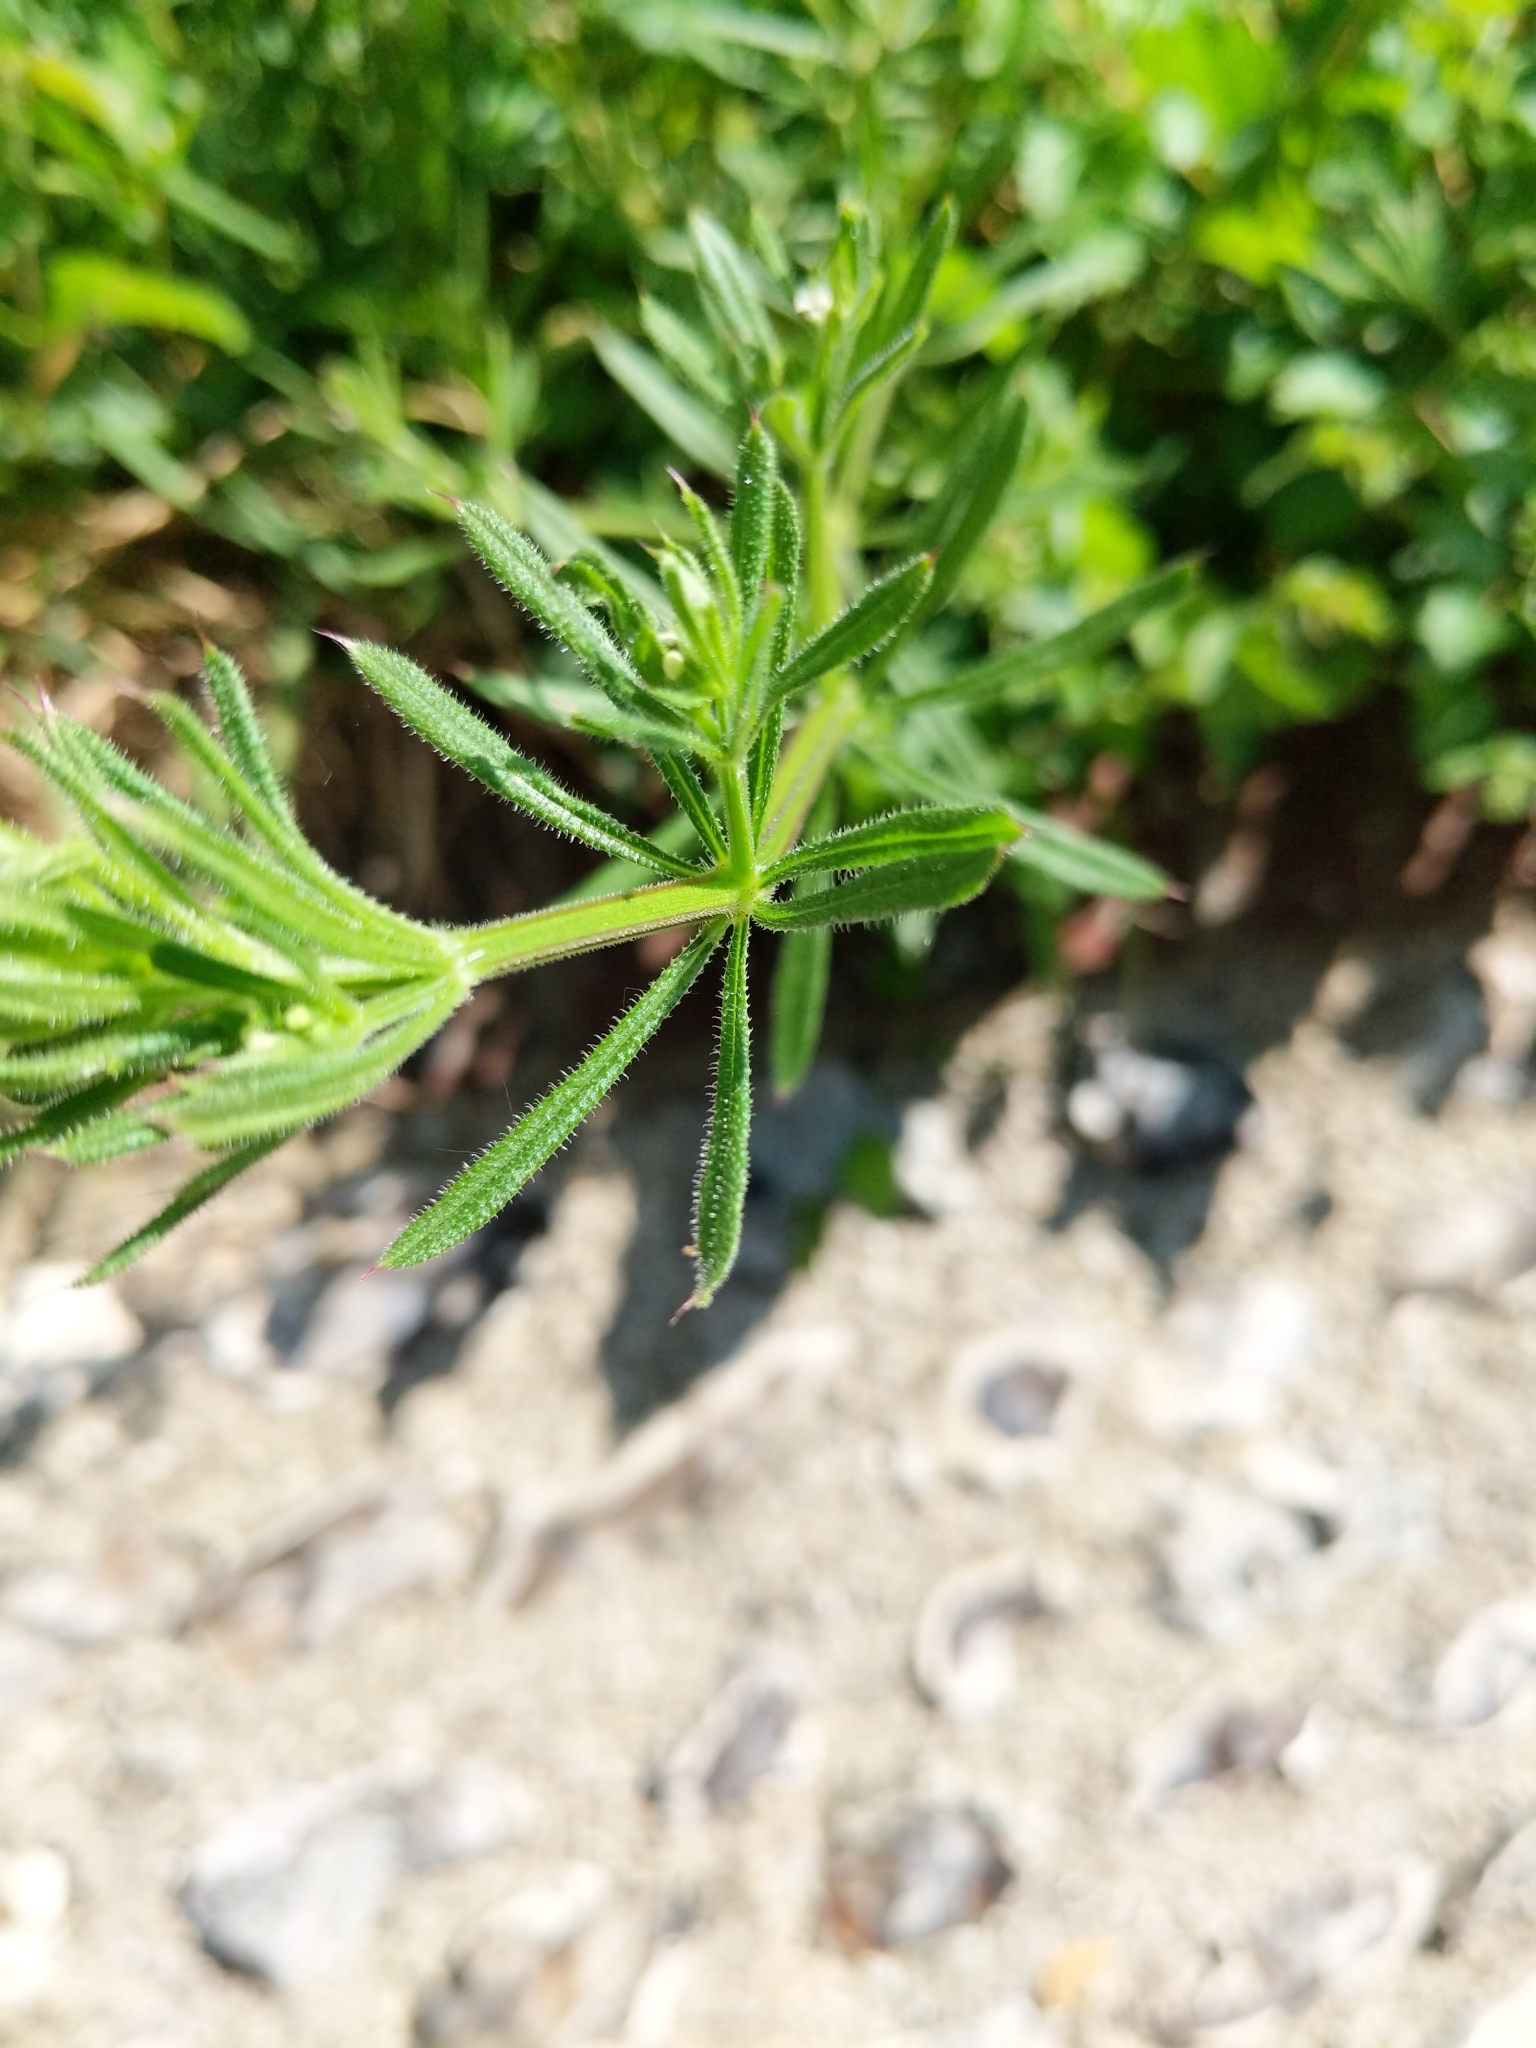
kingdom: Plantae
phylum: Tracheophyta
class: Magnoliopsida
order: Gentianales
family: Rubiaceae
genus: Galium
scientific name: Galium aparine
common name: Cleavers
